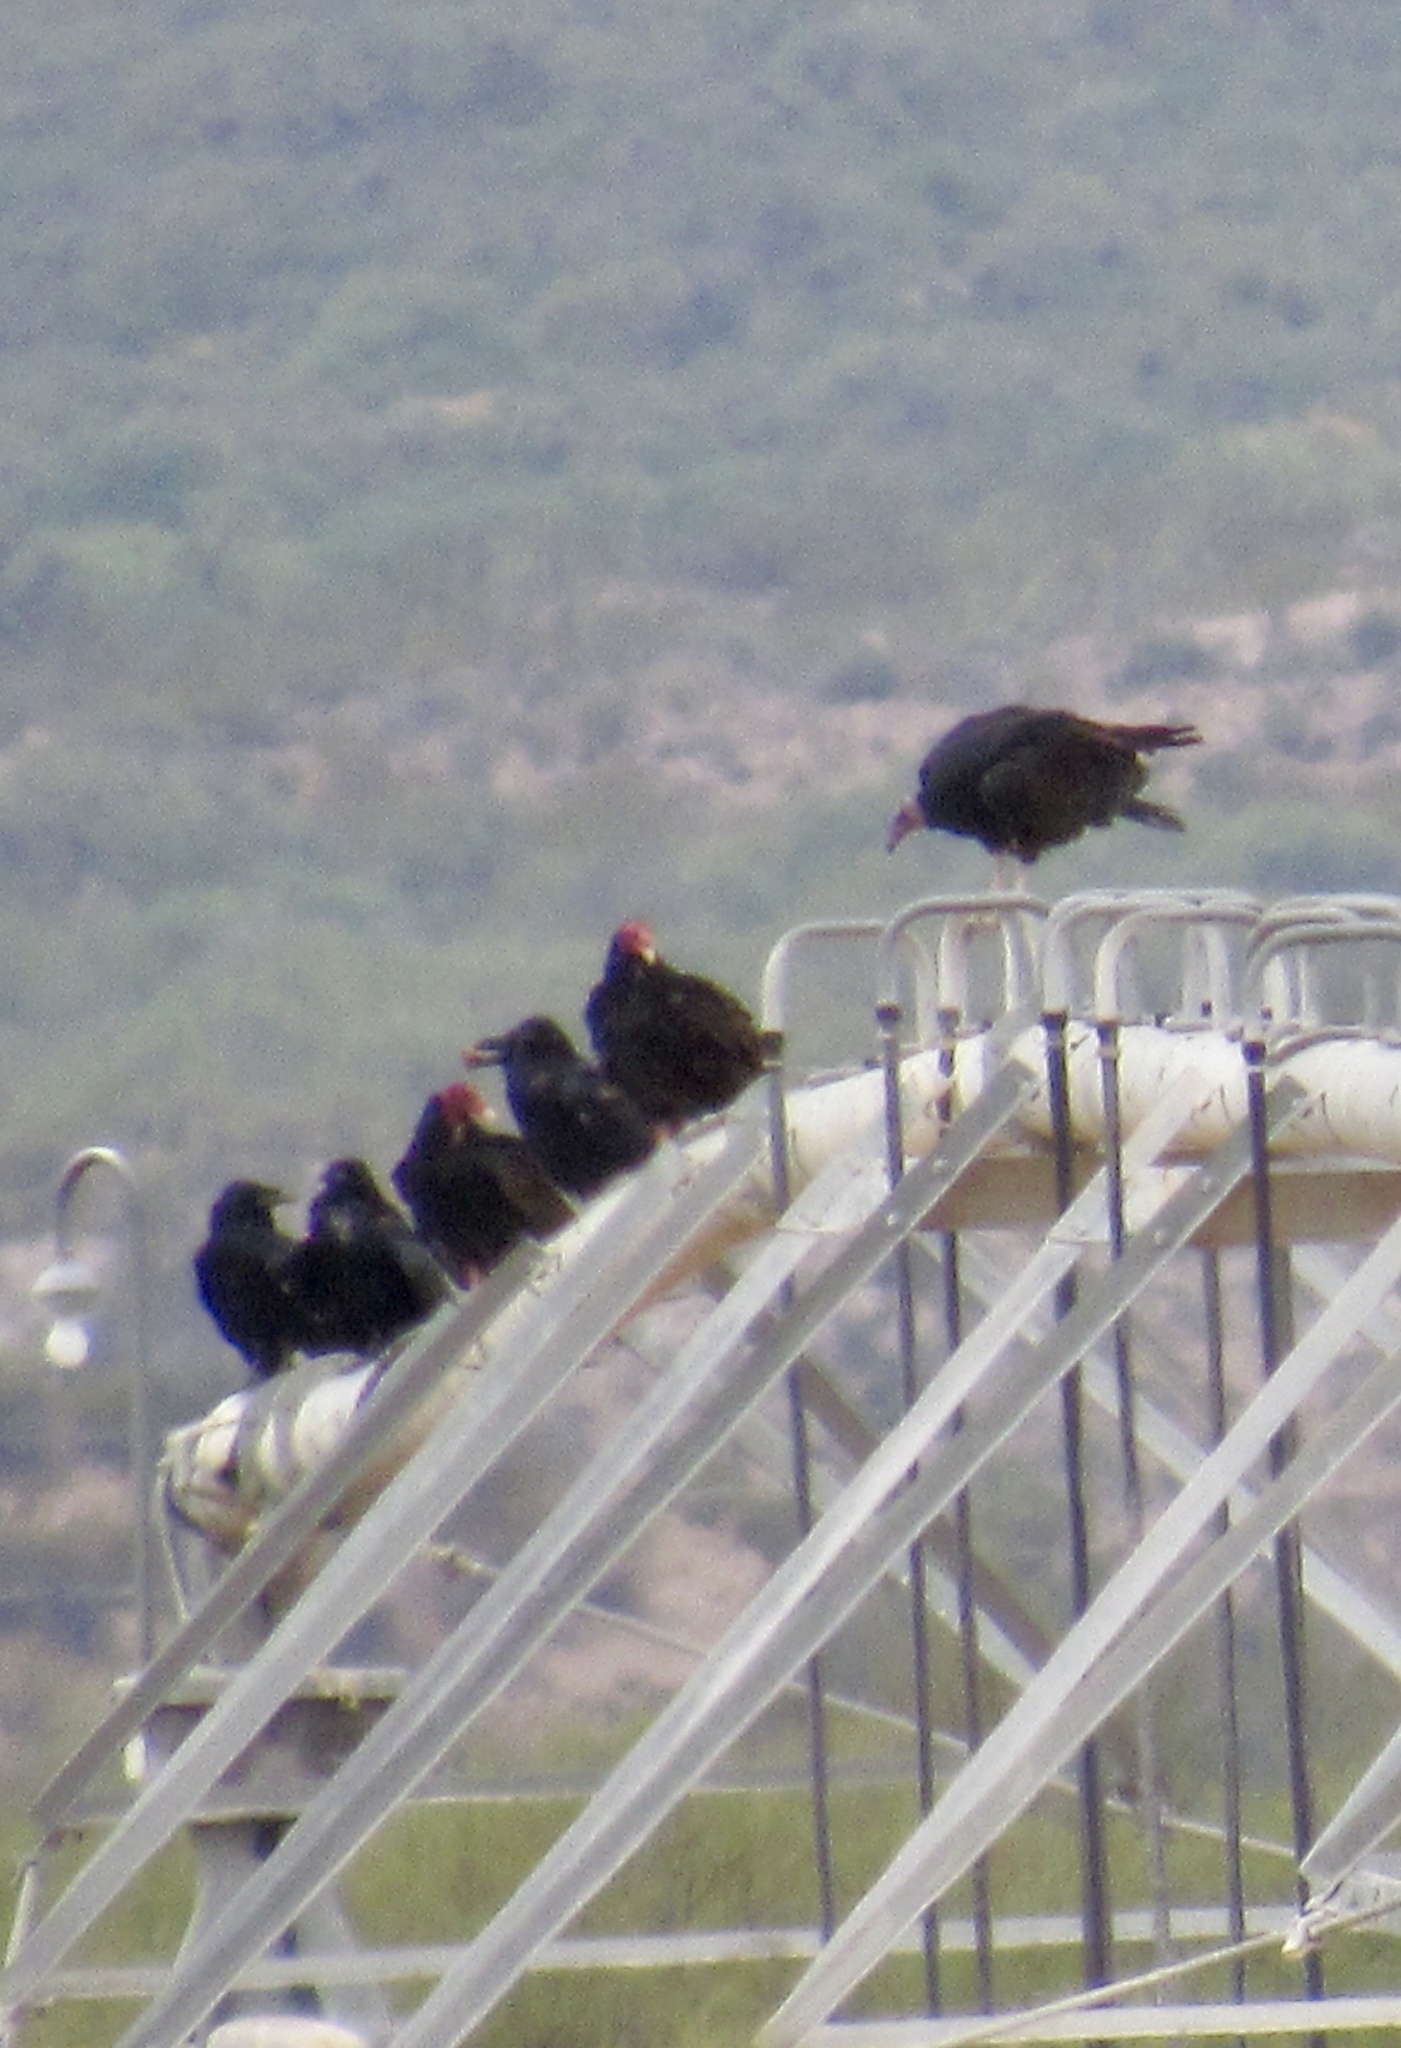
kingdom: Animalia
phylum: Chordata
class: Aves
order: Accipitriformes
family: Cathartidae
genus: Cathartes
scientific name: Cathartes aura
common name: Turkey vulture
